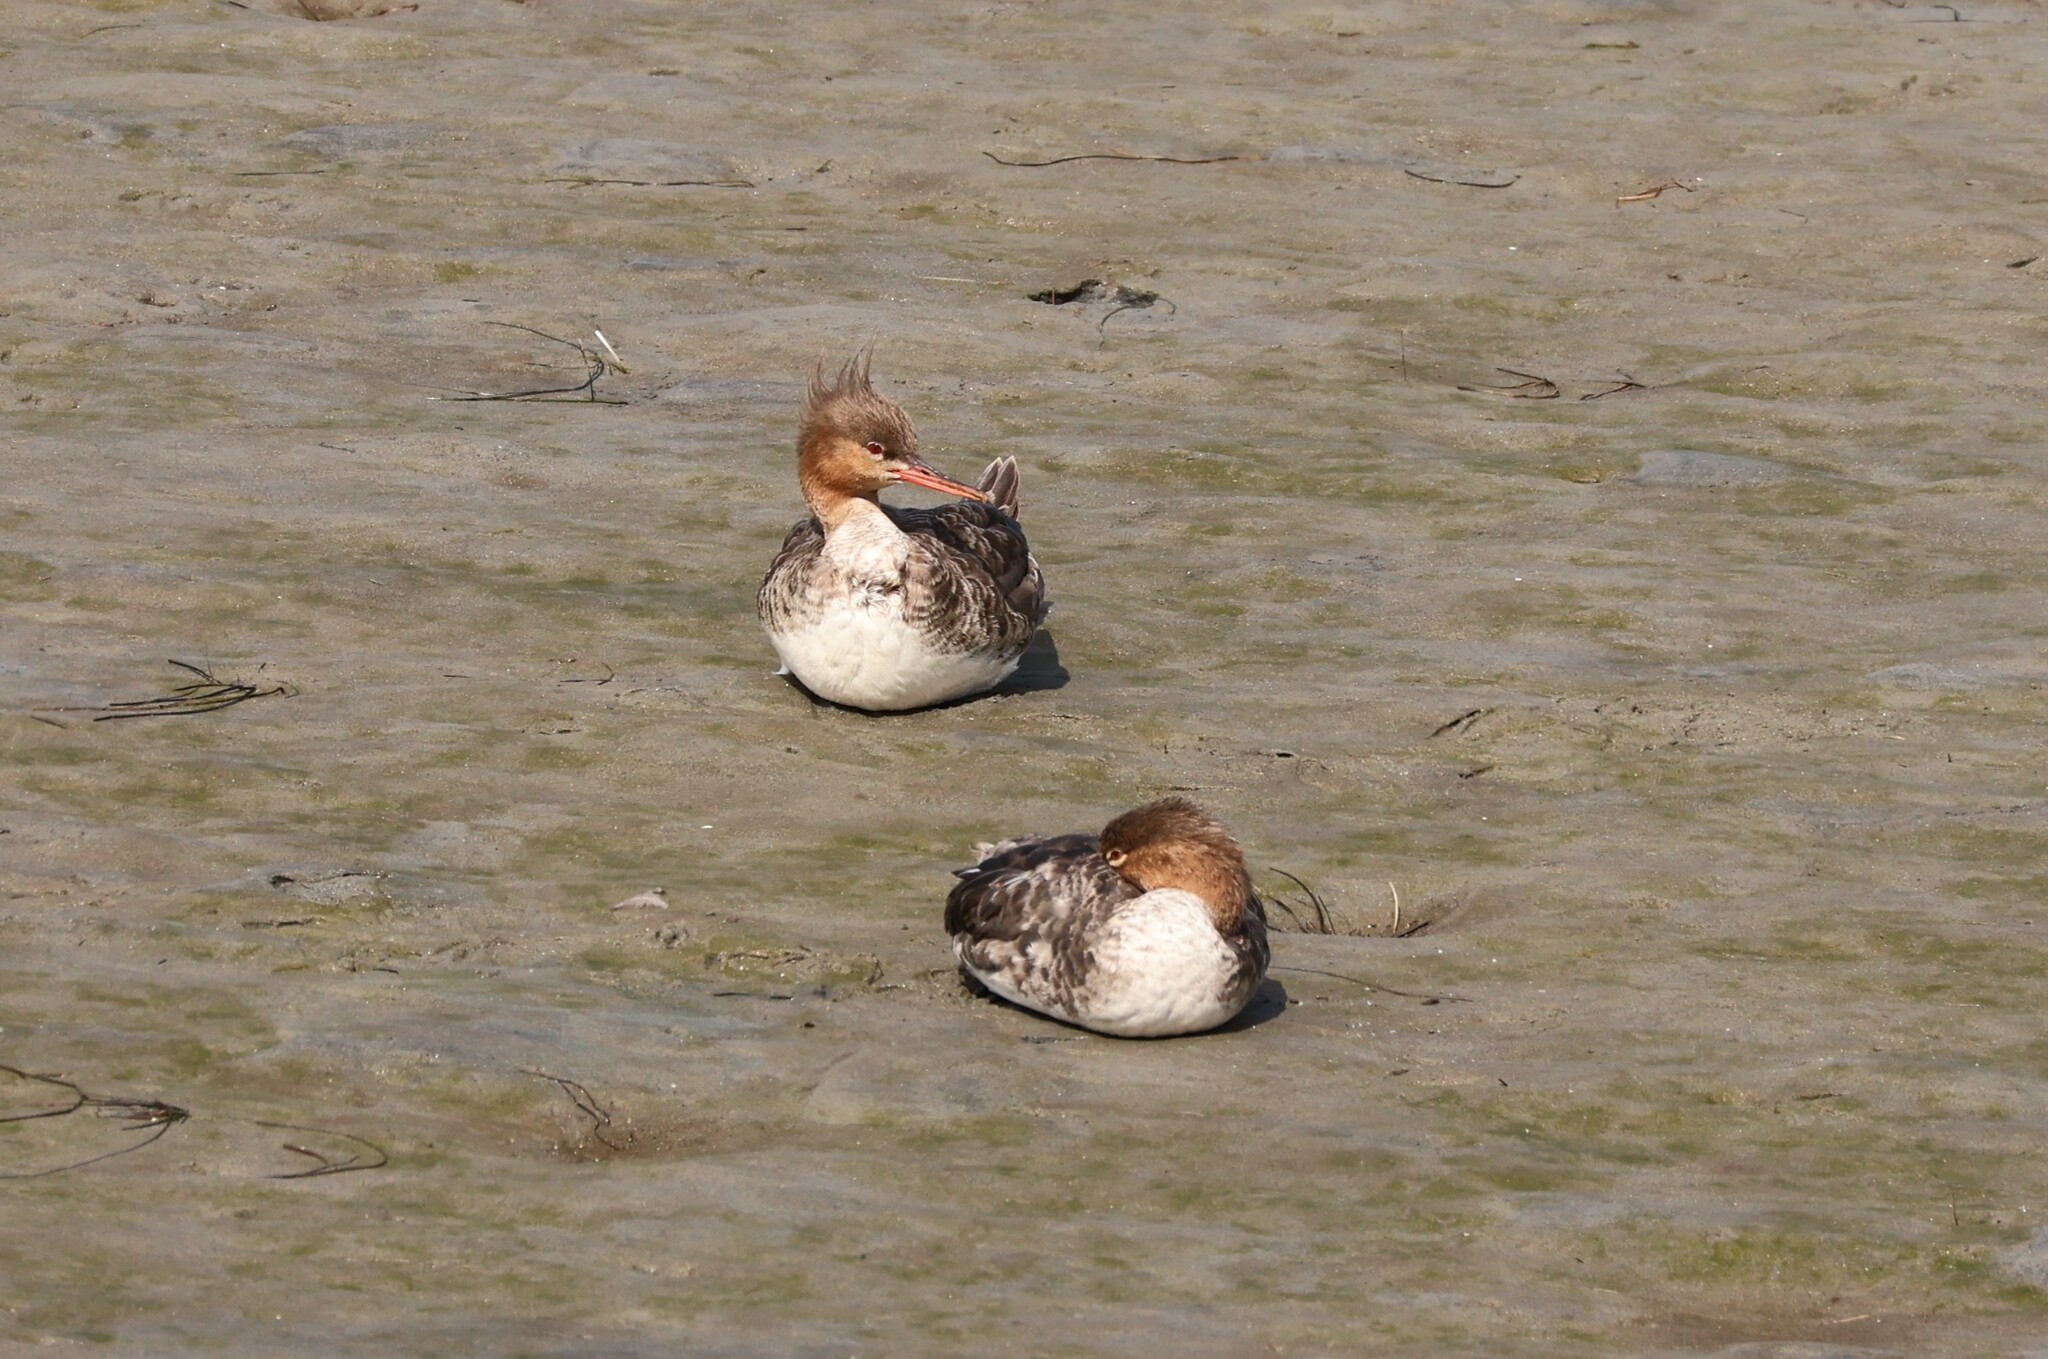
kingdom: Animalia
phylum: Chordata
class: Aves
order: Anseriformes
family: Anatidae
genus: Mergus
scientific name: Mergus serrator
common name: Red-breasted merganser
